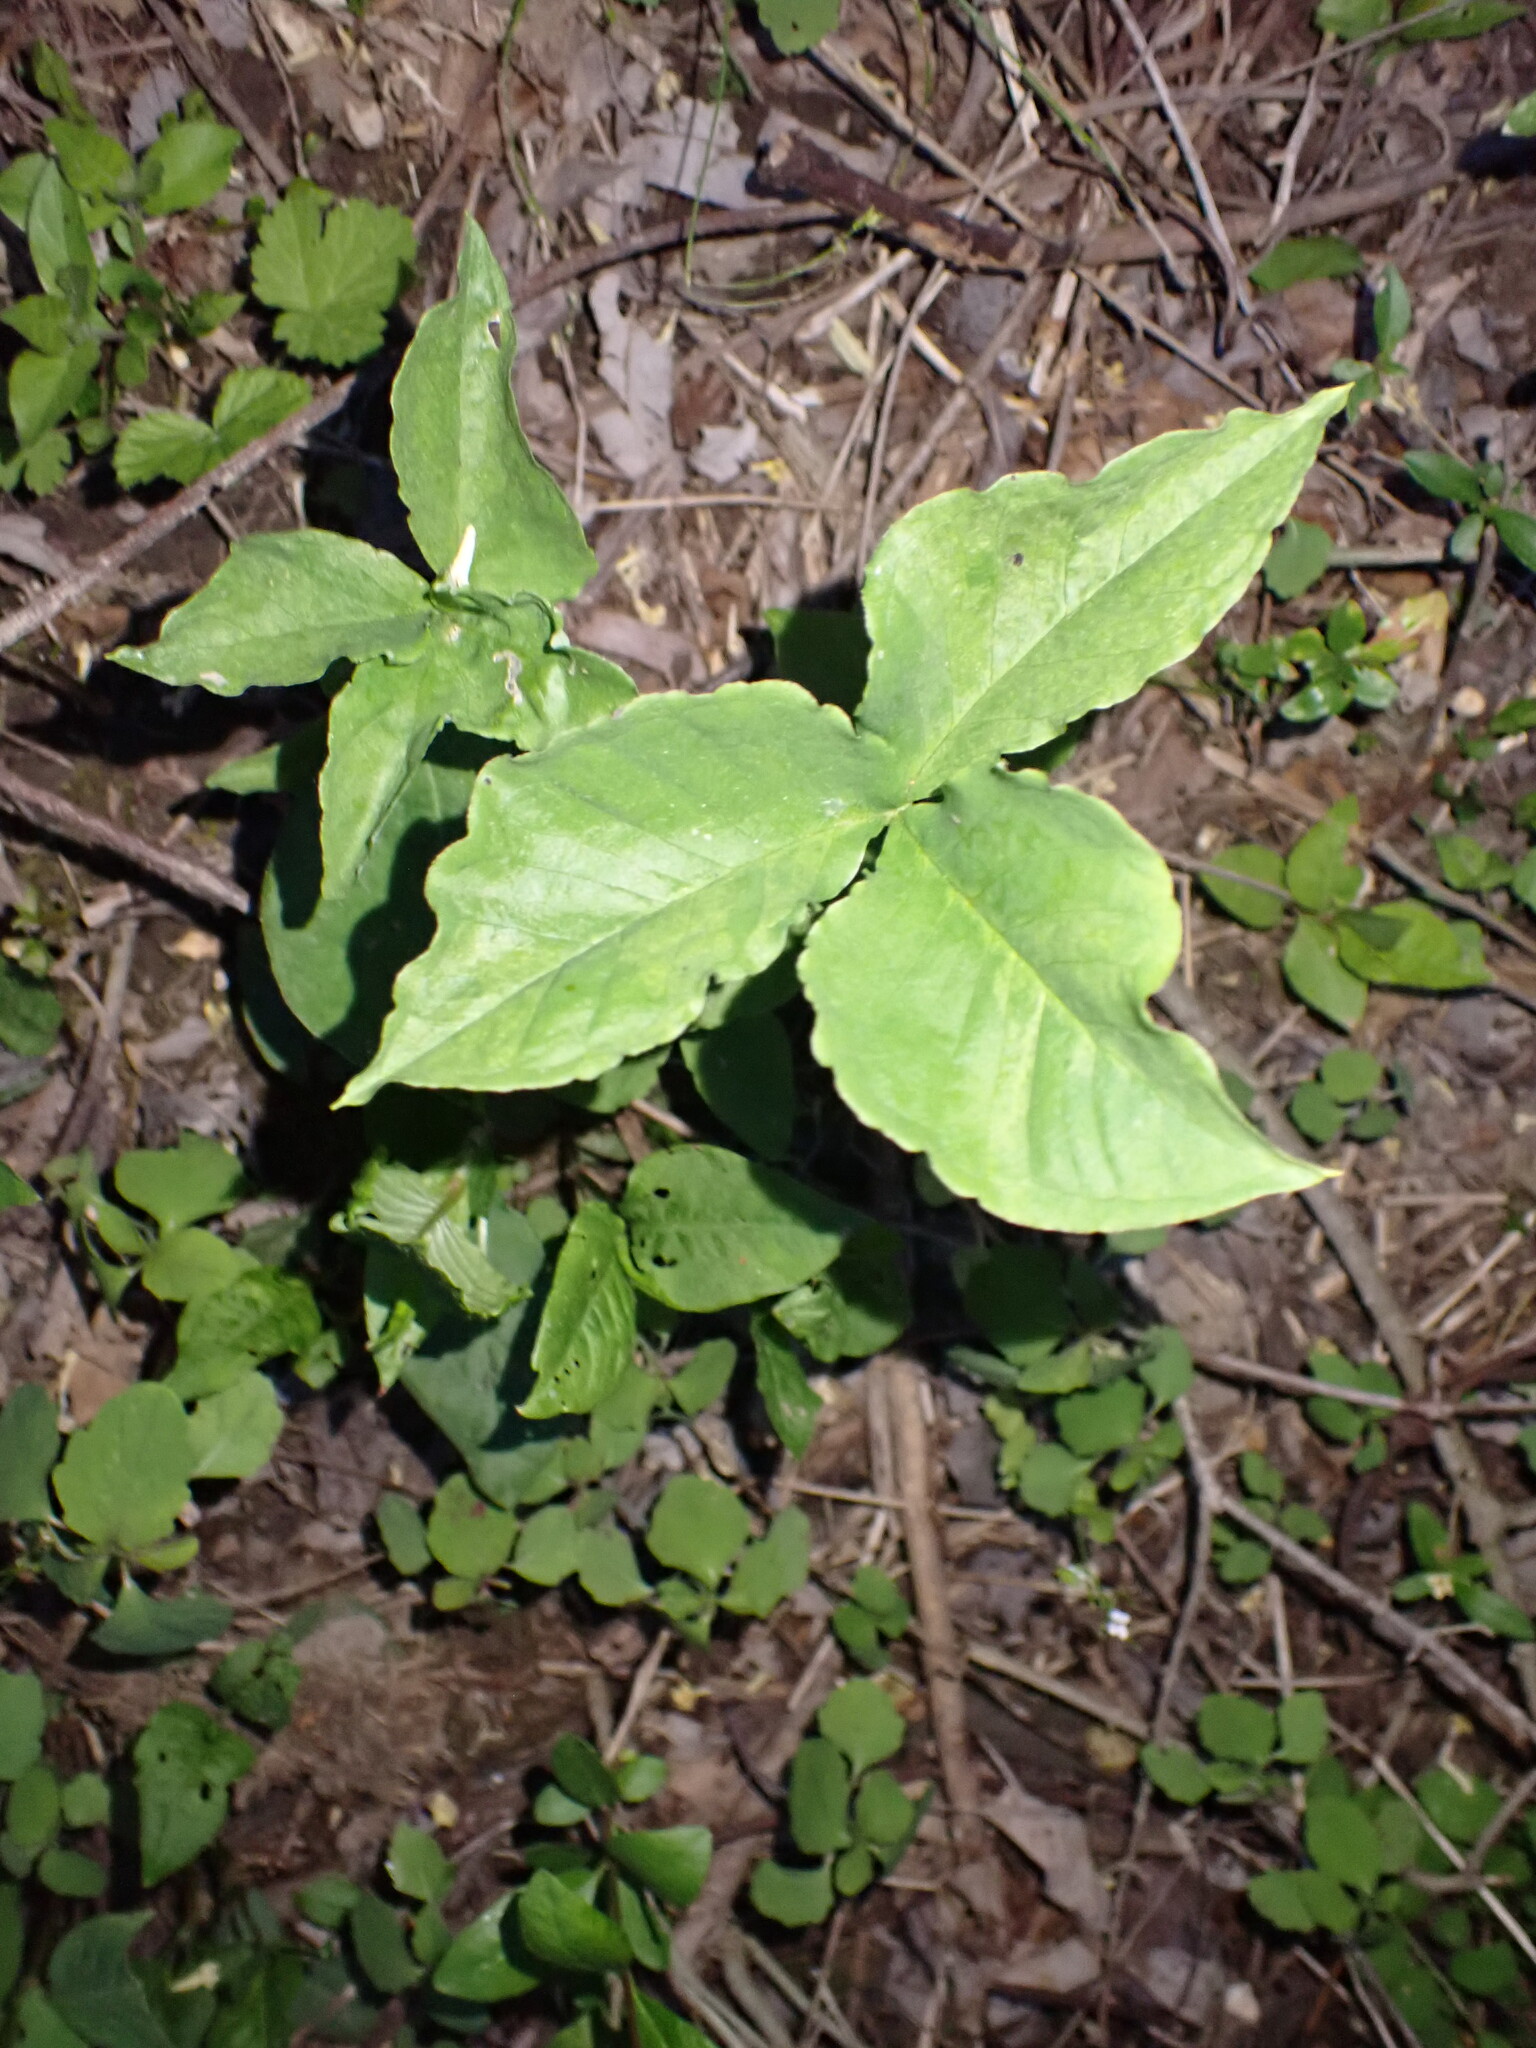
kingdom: Plantae
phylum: Tracheophyta
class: Liliopsida
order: Alismatales
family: Araceae
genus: Arisaema
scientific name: Arisaema triphyllum
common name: Jack-in-the-pulpit
